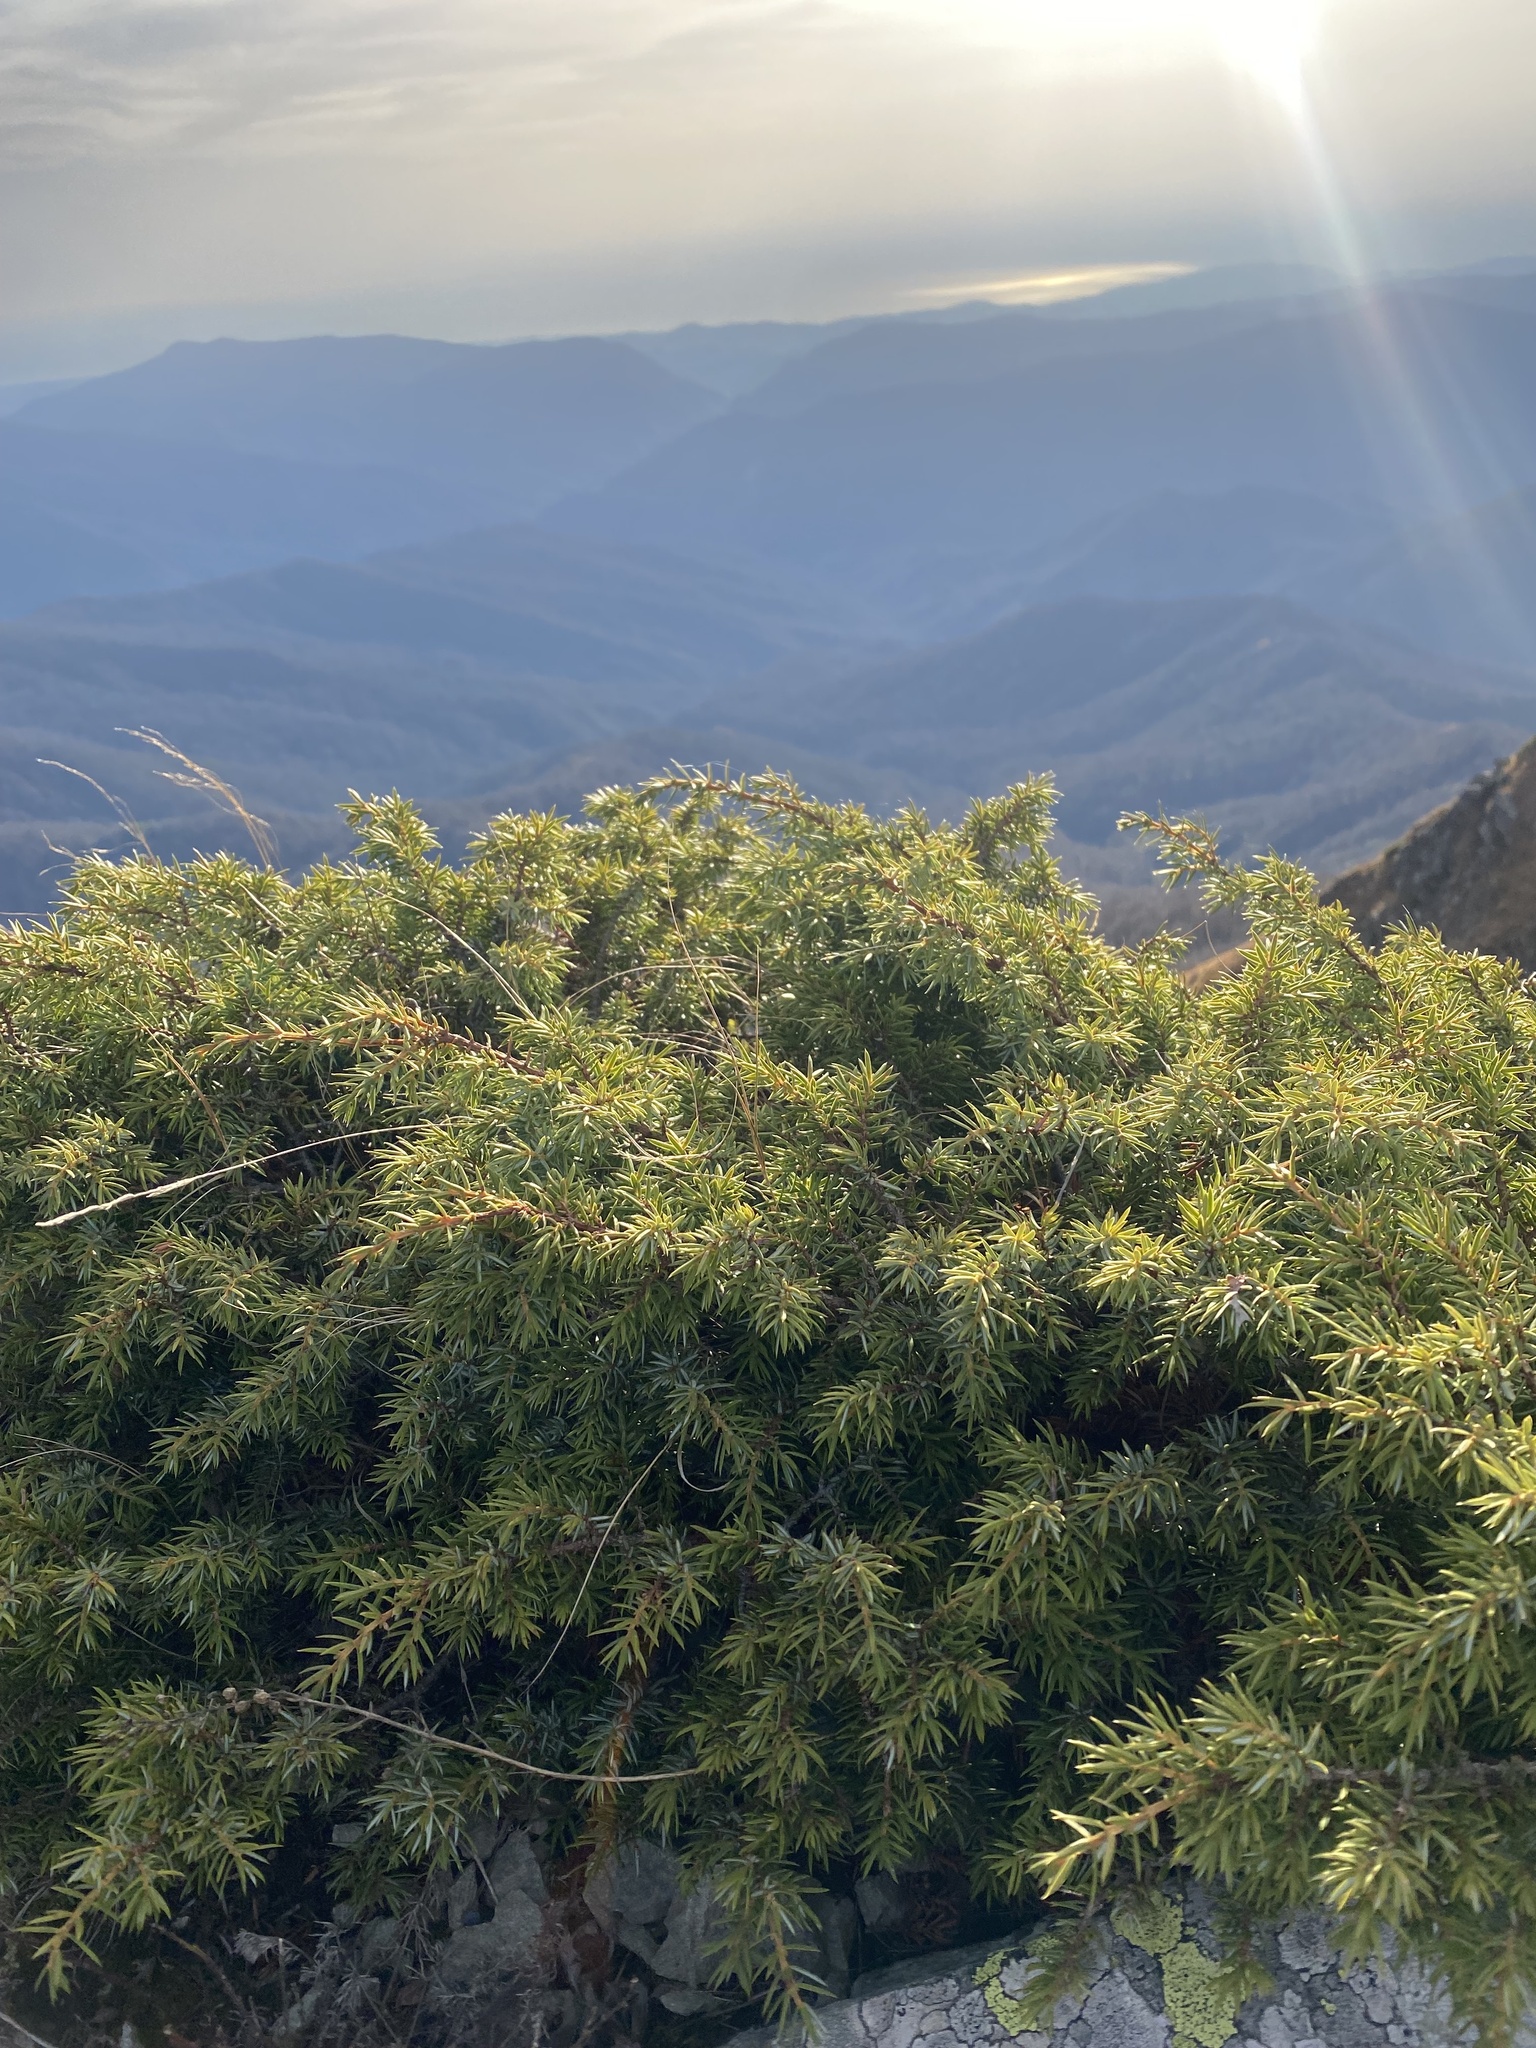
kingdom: Plantae
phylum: Tracheophyta
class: Pinopsida
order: Pinales
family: Cupressaceae
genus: Juniperus
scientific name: Juniperus communis
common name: Common juniper
